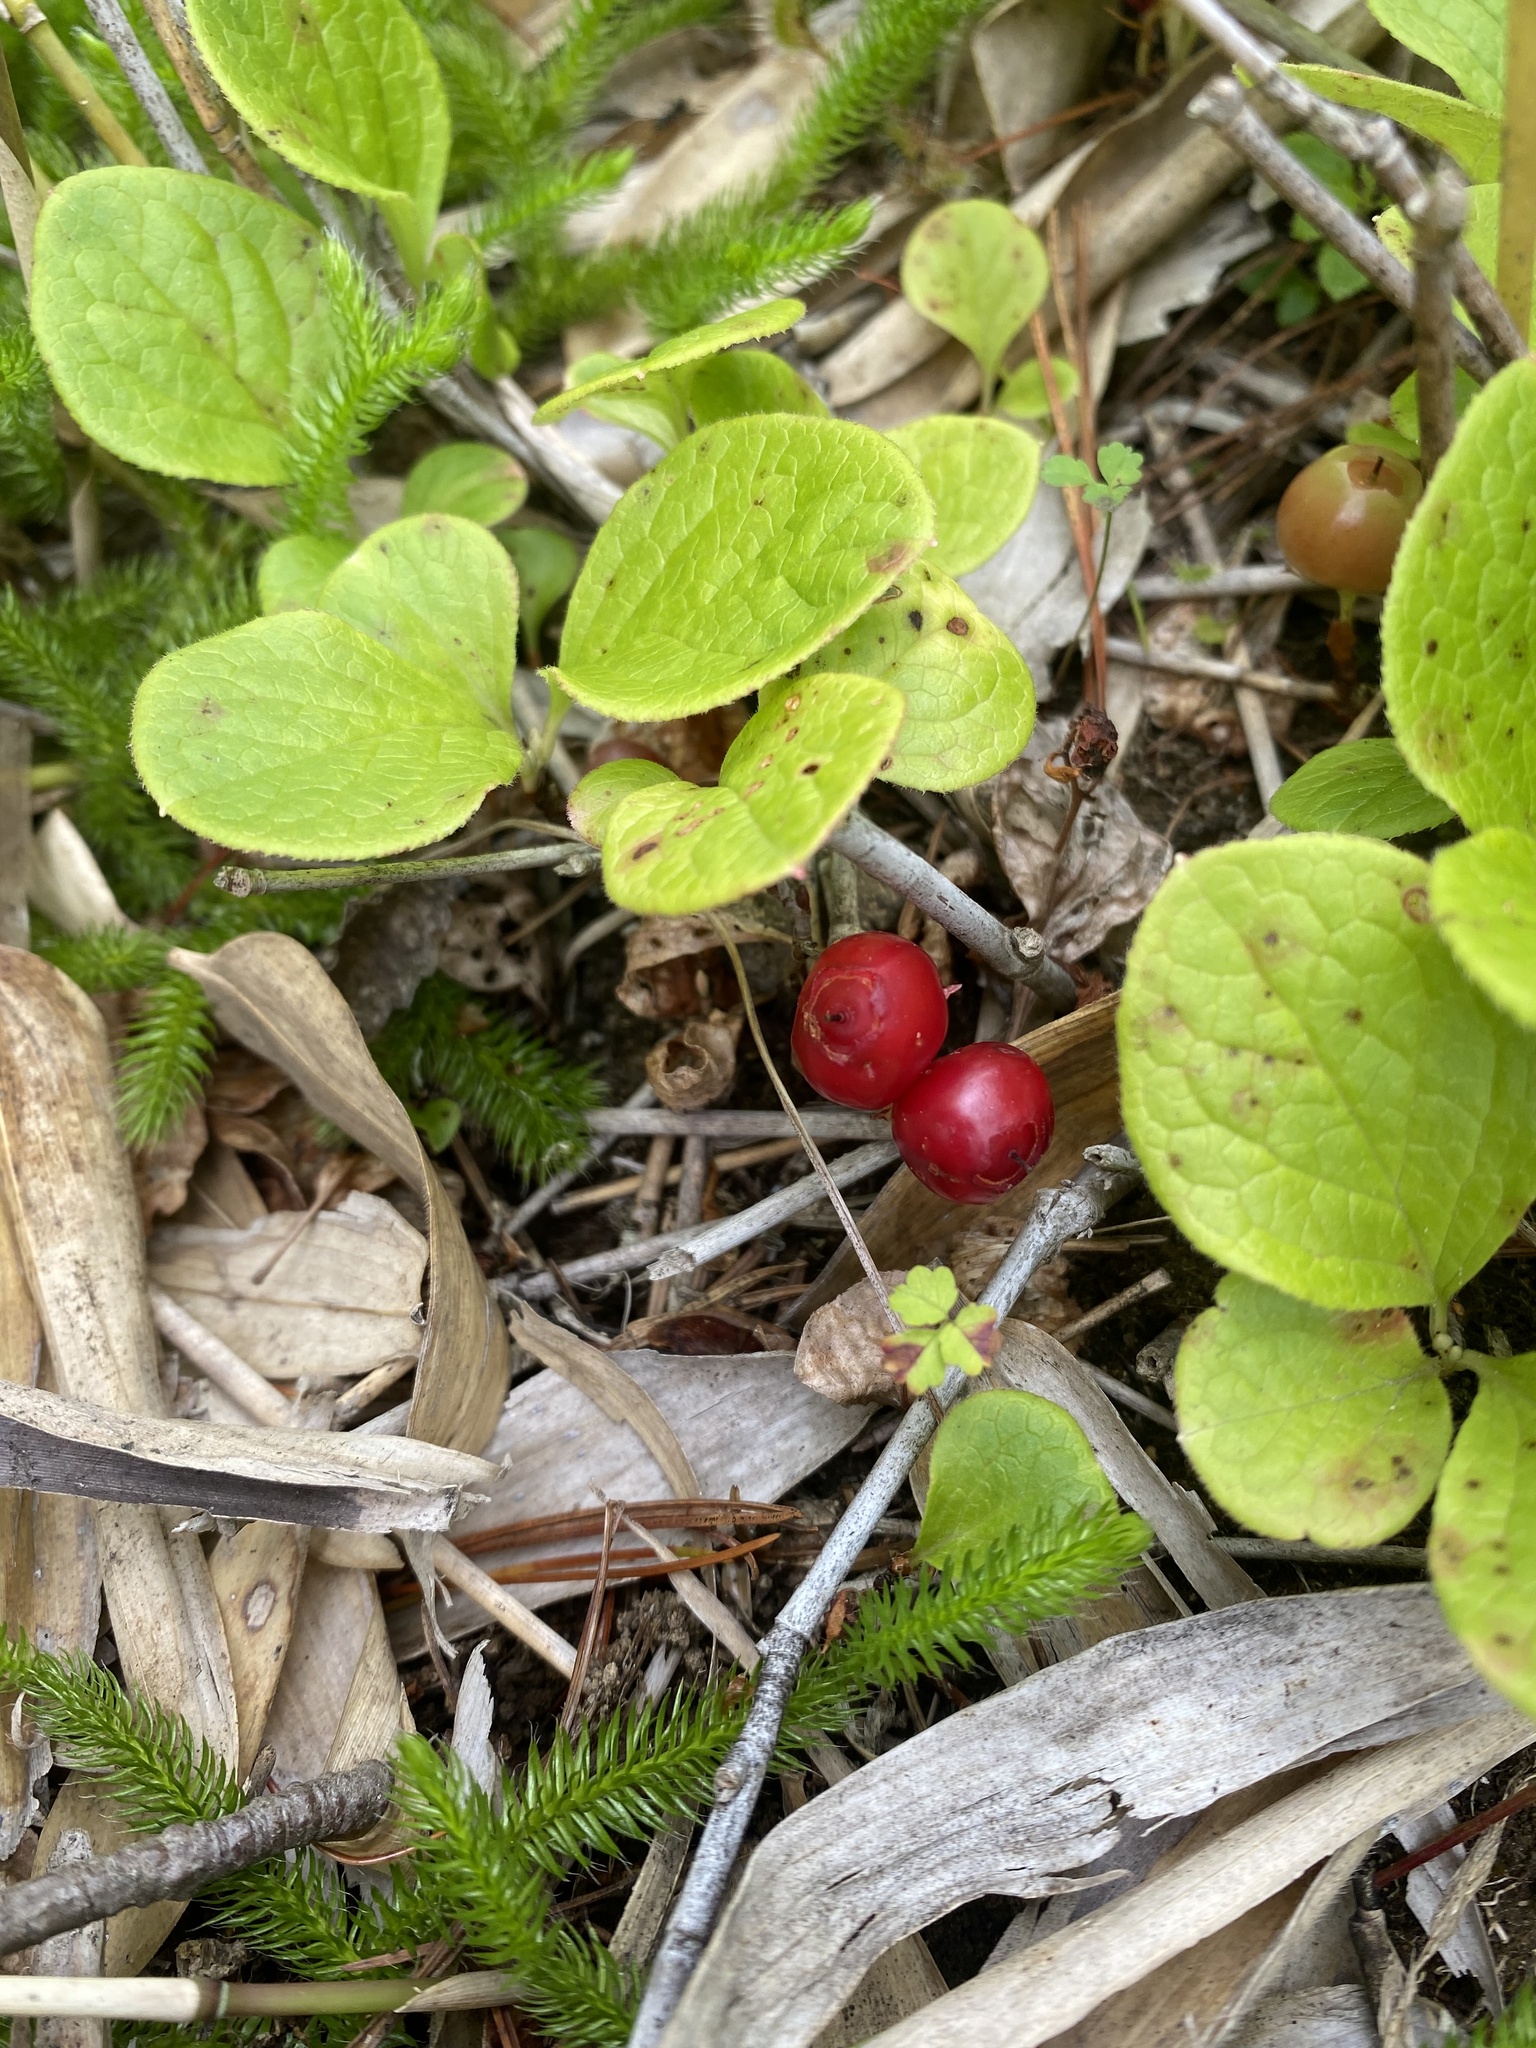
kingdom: Plantae
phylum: Tracheophyta
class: Magnoliopsida
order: Ericales
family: Ericaceae
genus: Vaccinium
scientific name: Vaccinium praestans
